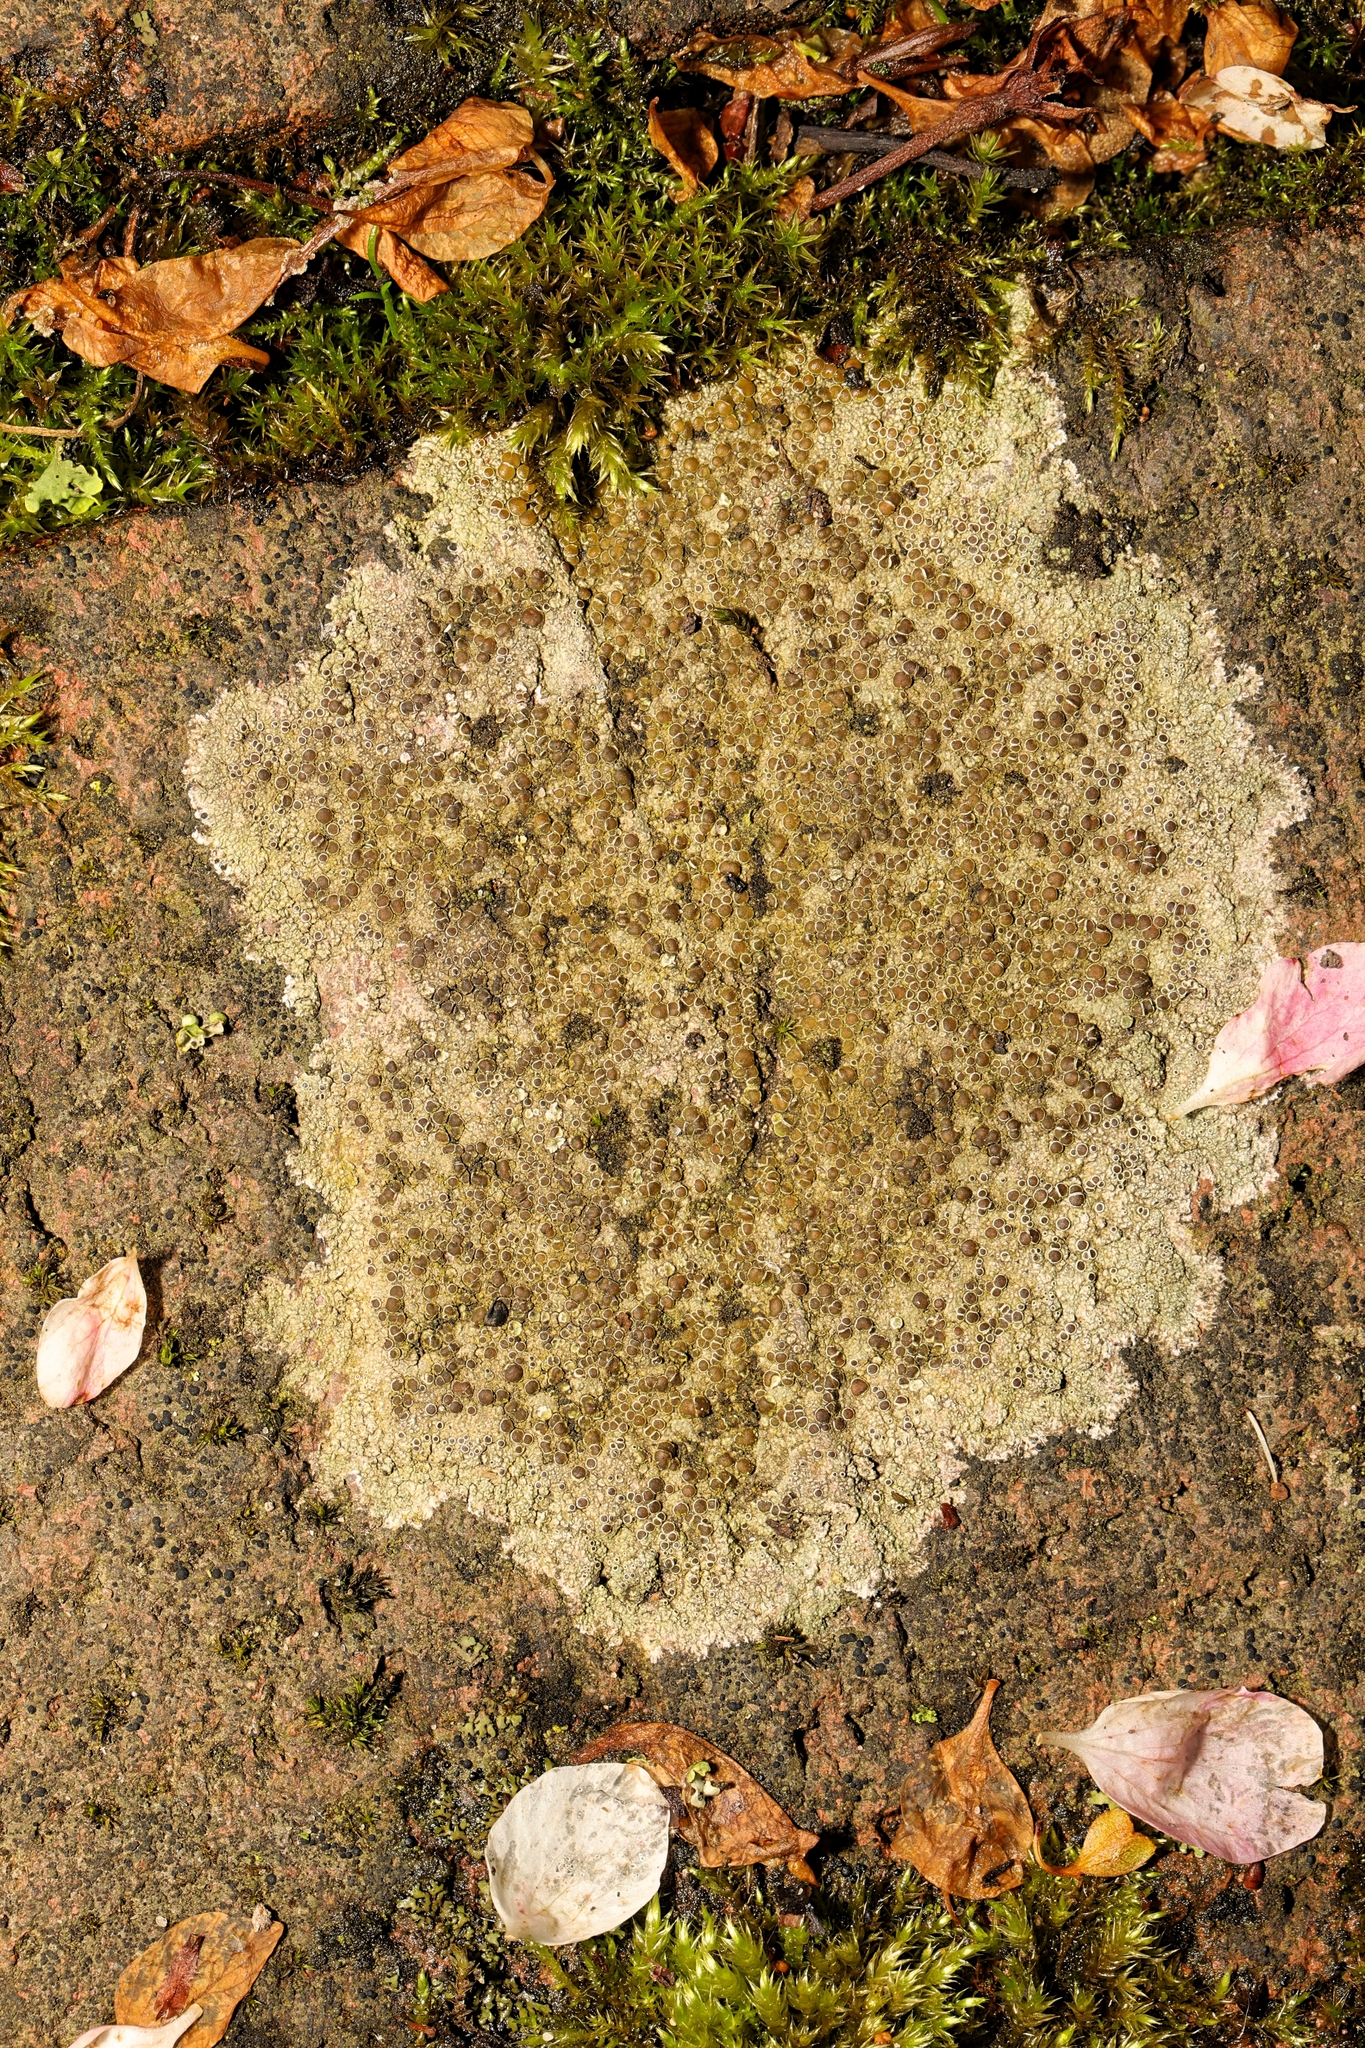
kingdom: Fungi
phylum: Ascomycota
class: Lecanoromycetes
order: Lecanorales
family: Lecanoraceae
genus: Lecanora
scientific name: Lecanora campestris
